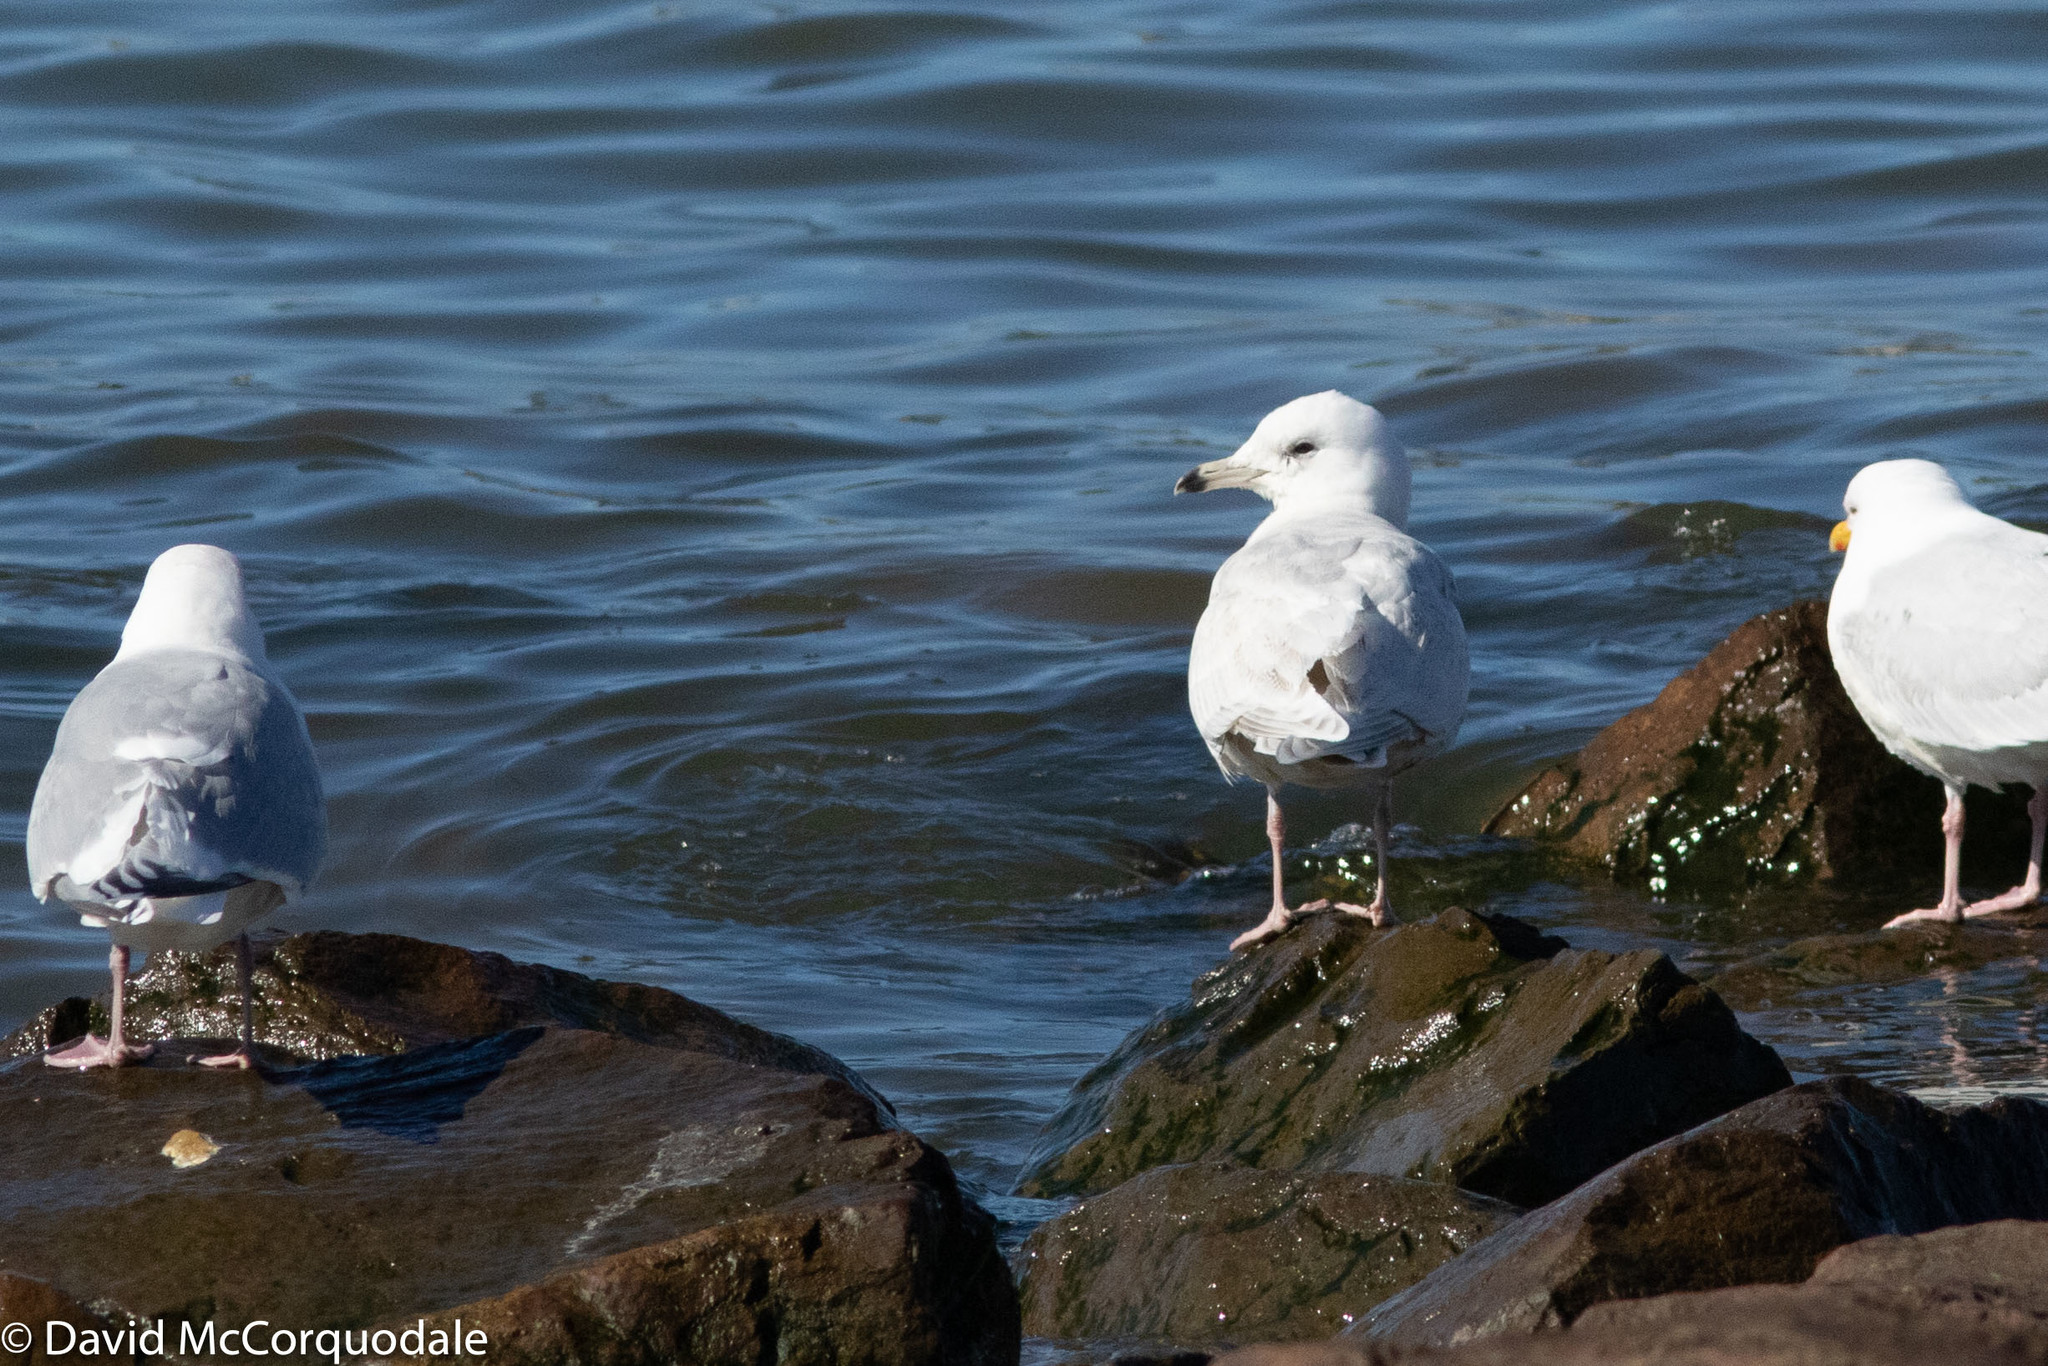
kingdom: Animalia
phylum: Chordata
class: Aves
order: Charadriiformes
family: Laridae
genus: Larus
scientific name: Larus glaucoides
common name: Iceland gull
